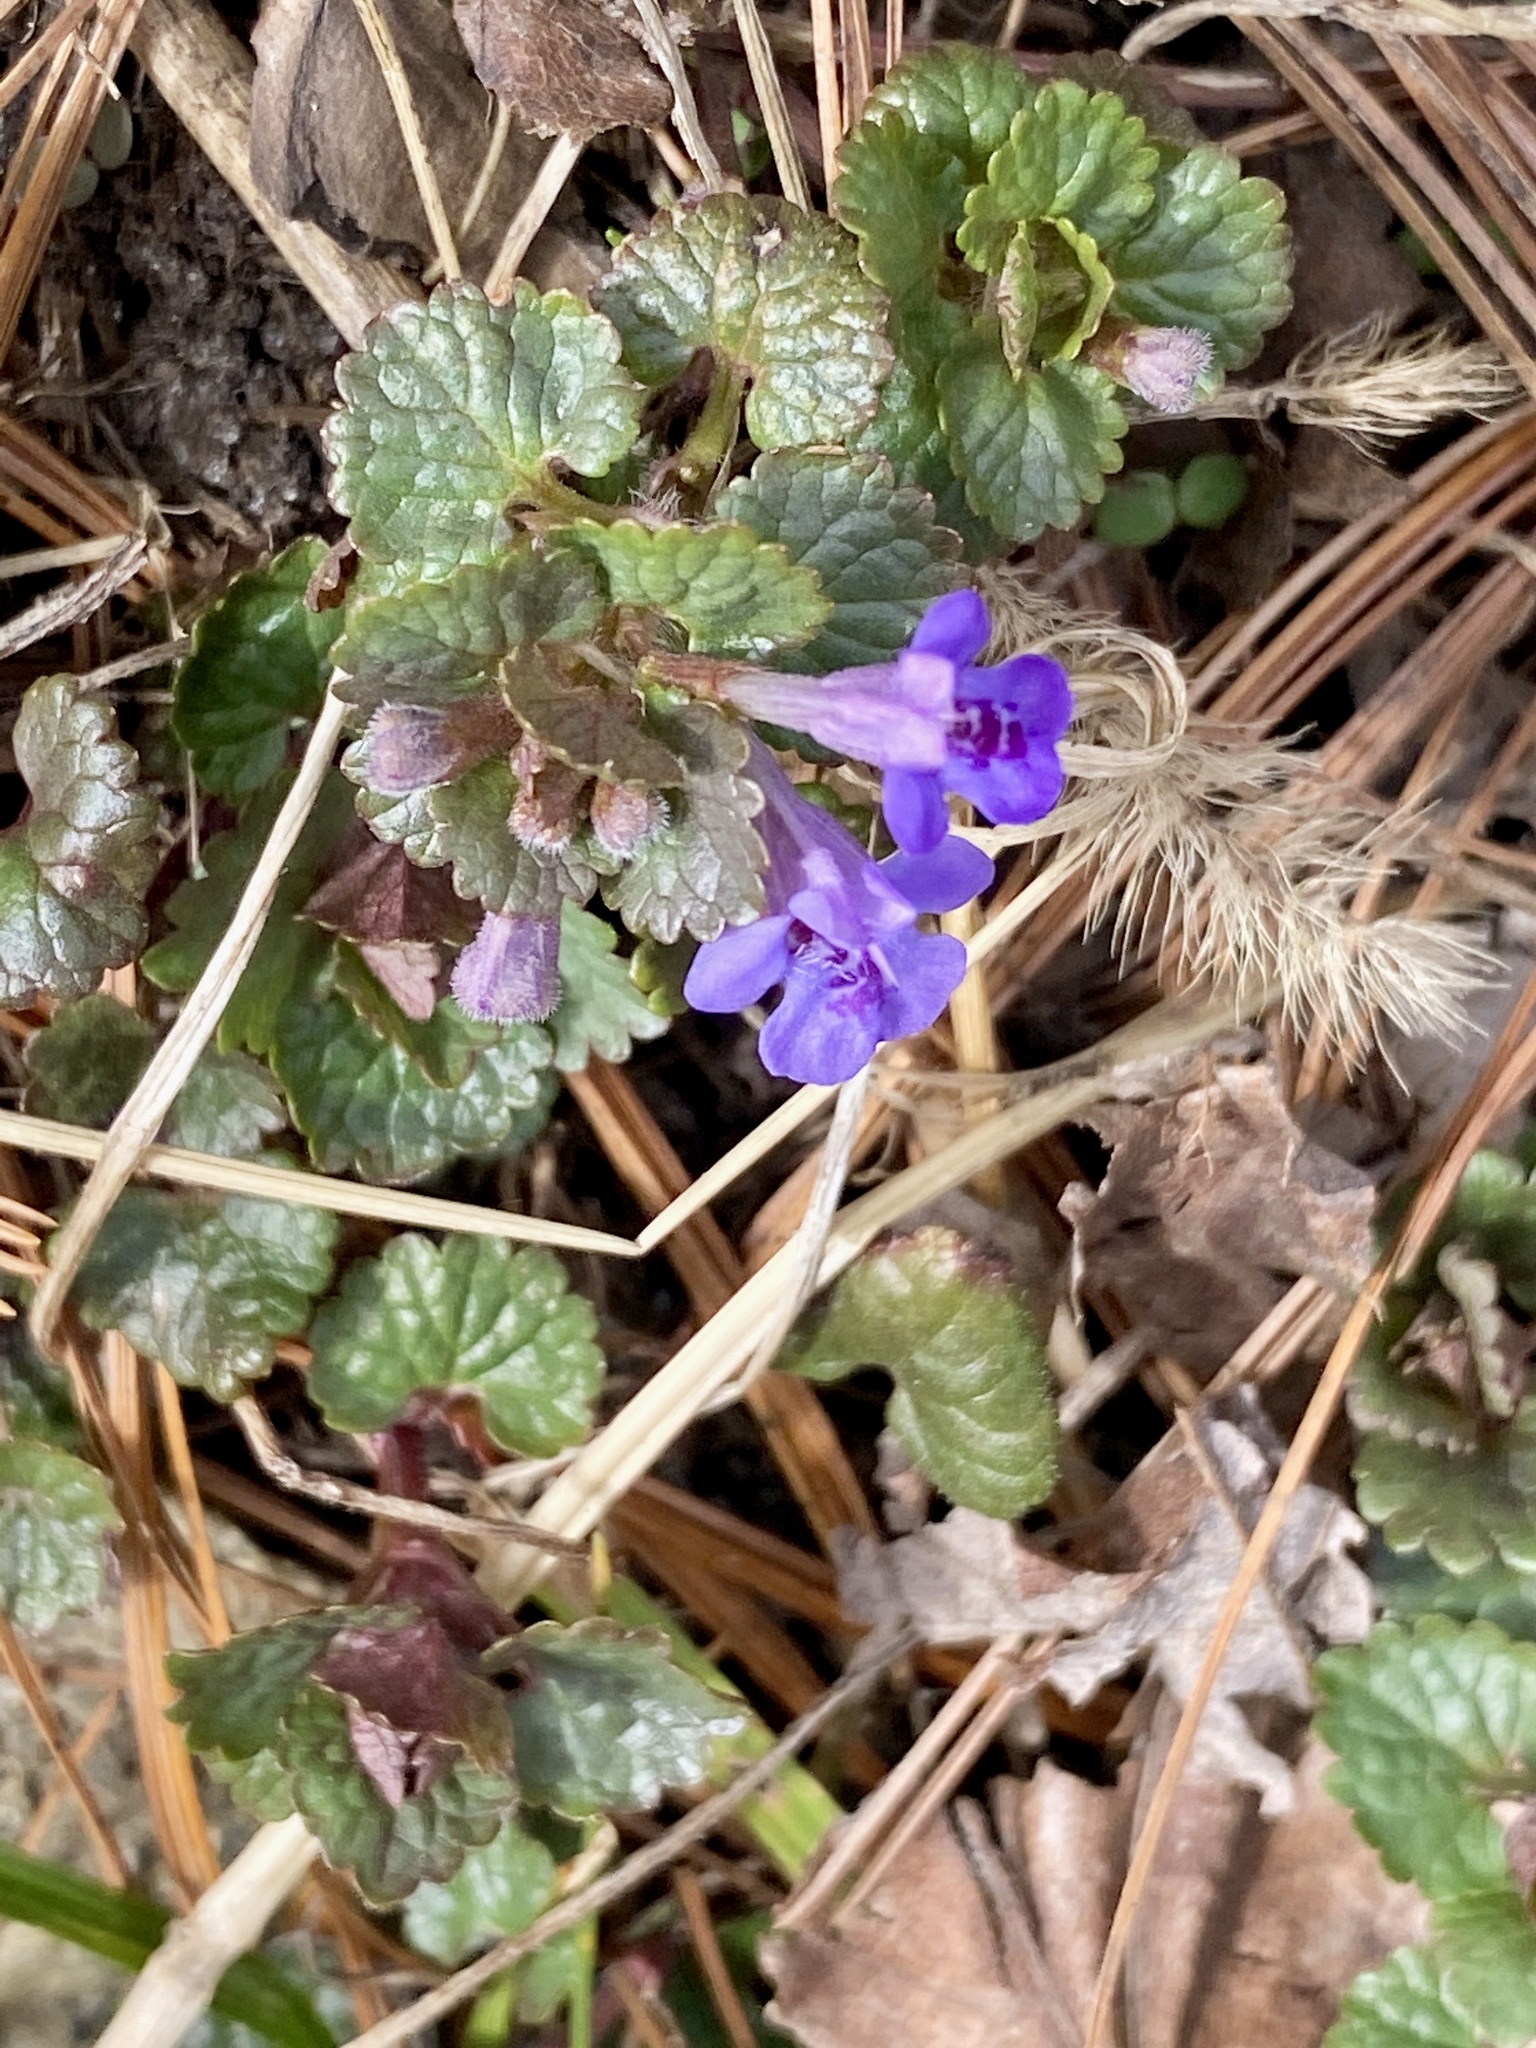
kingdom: Plantae
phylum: Tracheophyta
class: Magnoliopsida
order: Lamiales
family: Lamiaceae
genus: Glechoma
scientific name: Glechoma hederacea
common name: Ground ivy
